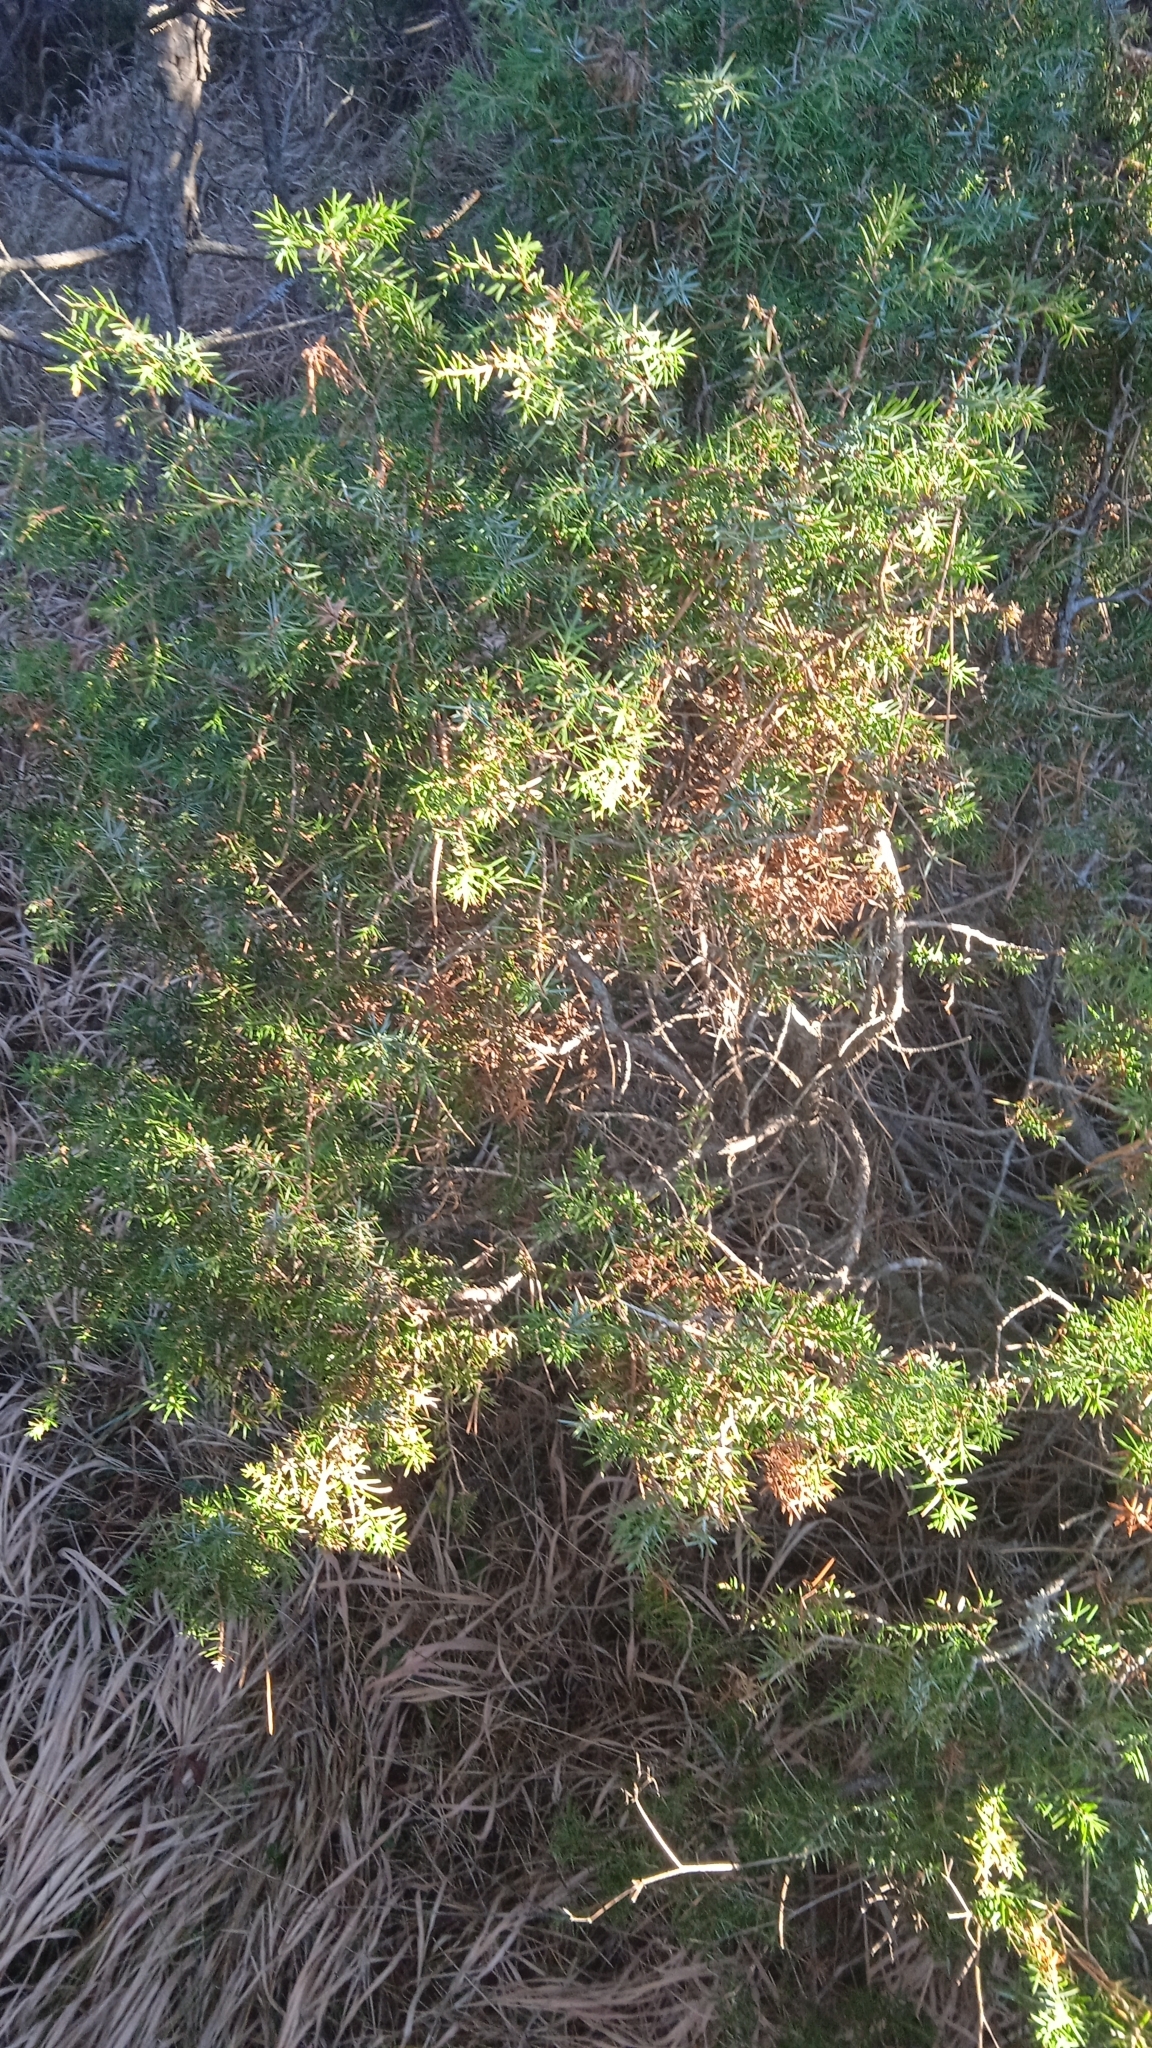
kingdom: Plantae
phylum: Tracheophyta
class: Pinopsida
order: Pinales
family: Cupressaceae
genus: Juniperus
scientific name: Juniperus communis
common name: Common juniper
